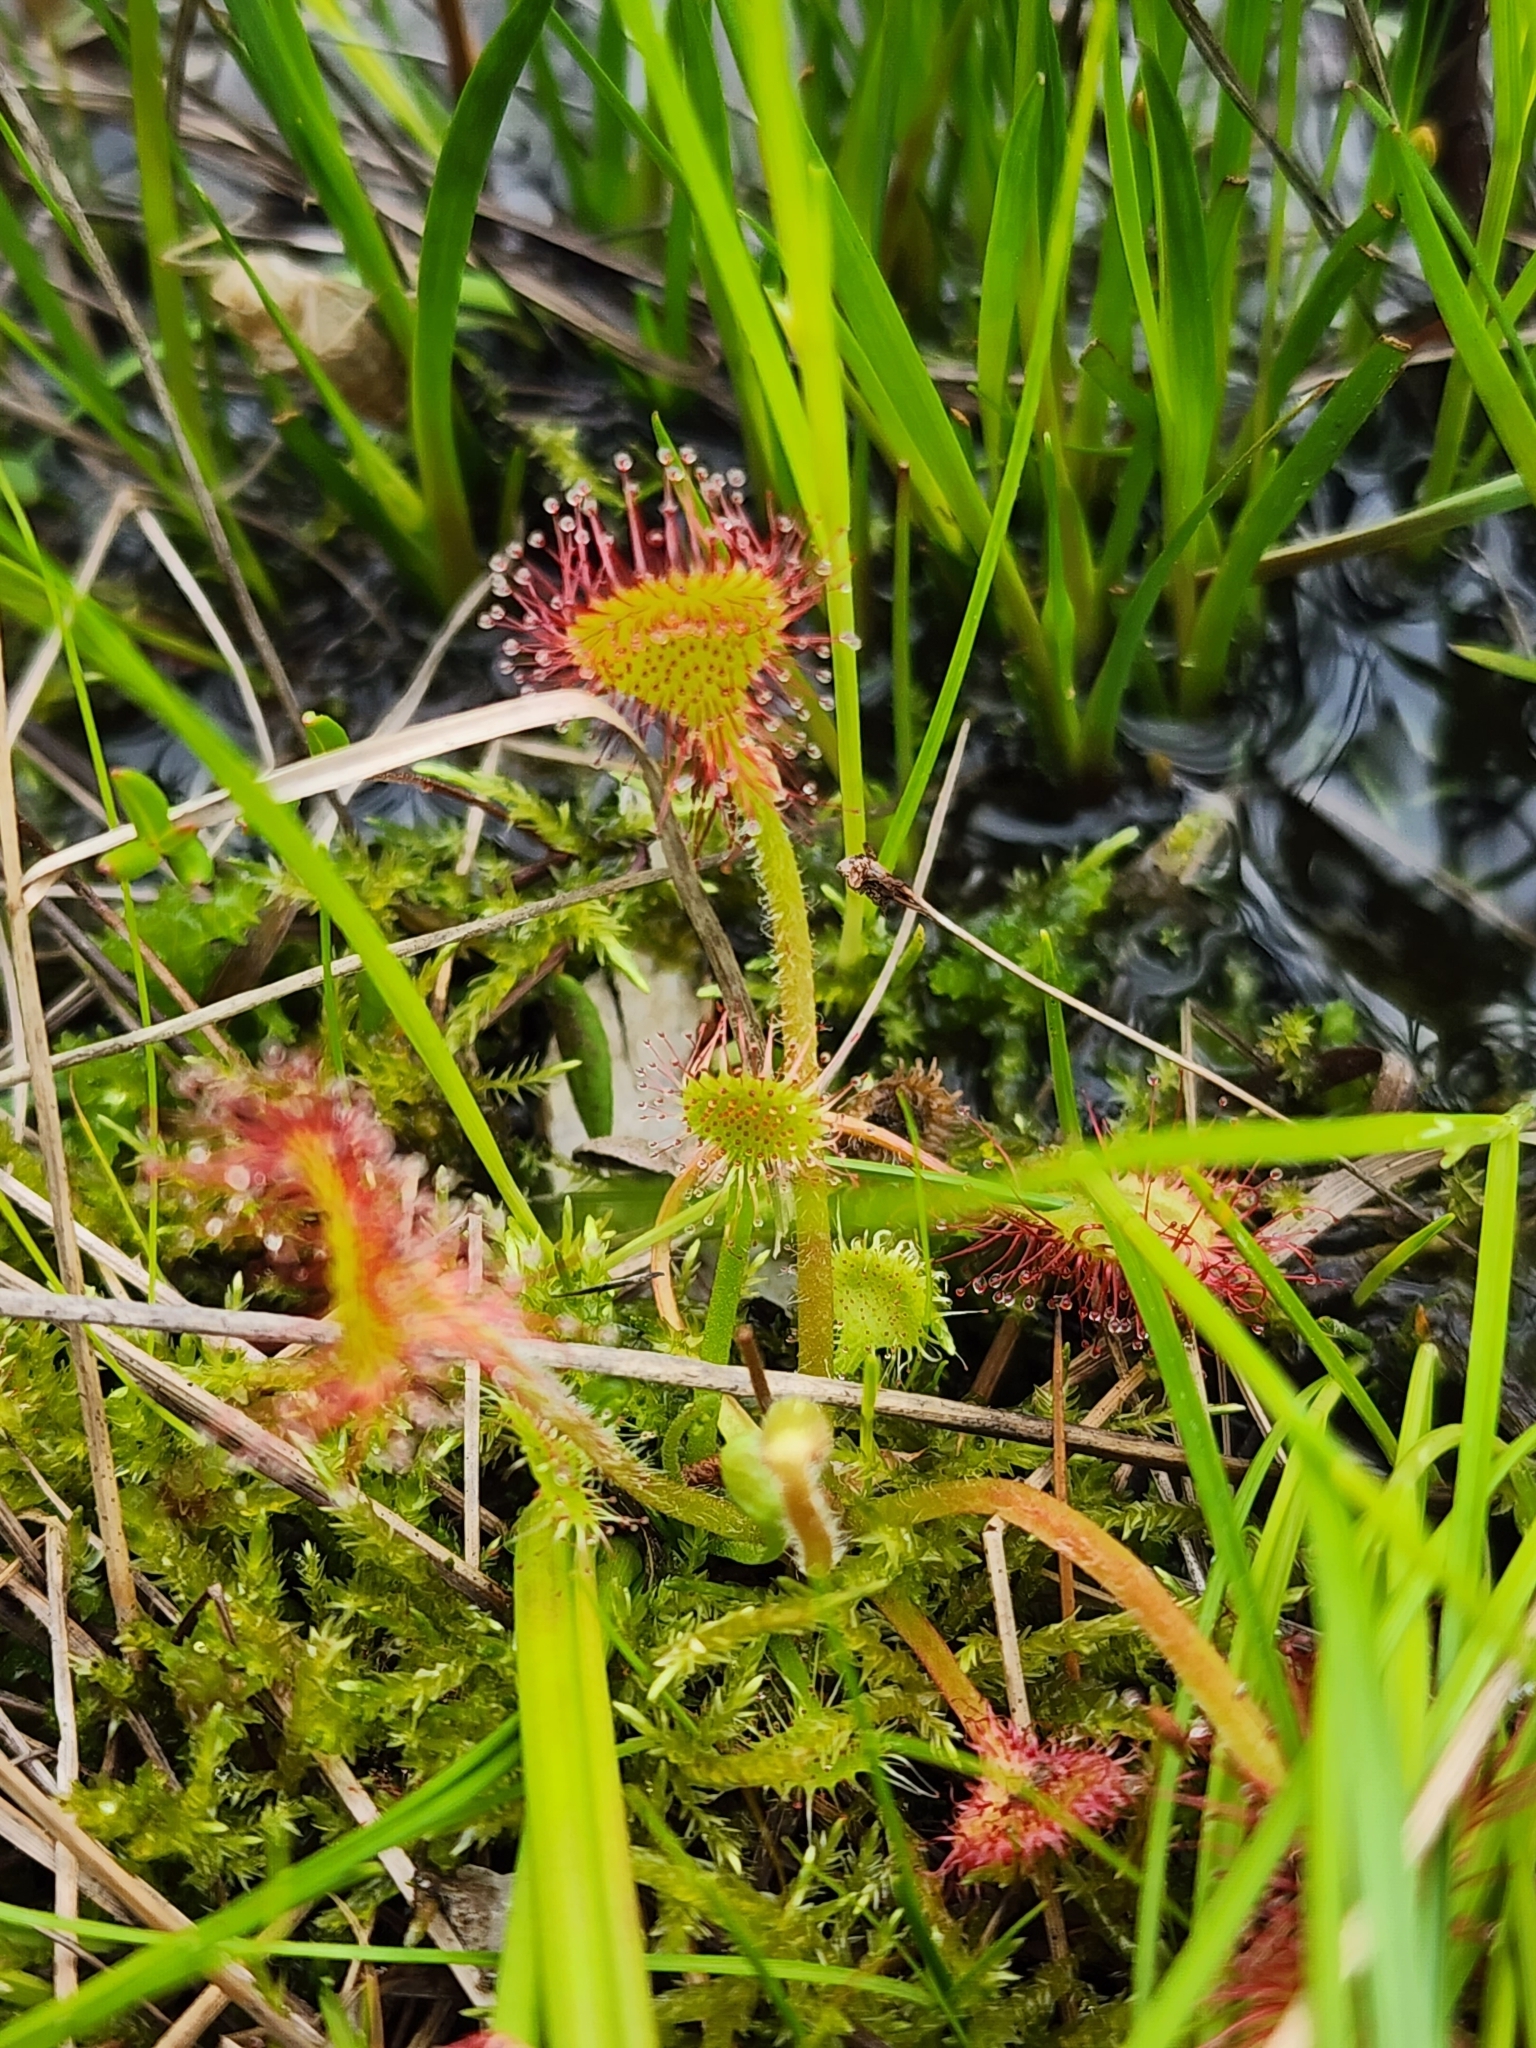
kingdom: Plantae
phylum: Tracheophyta
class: Magnoliopsida
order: Caryophyllales
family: Droseraceae
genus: Drosera
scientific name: Drosera rotundifolia
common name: Round-leaved sundew
